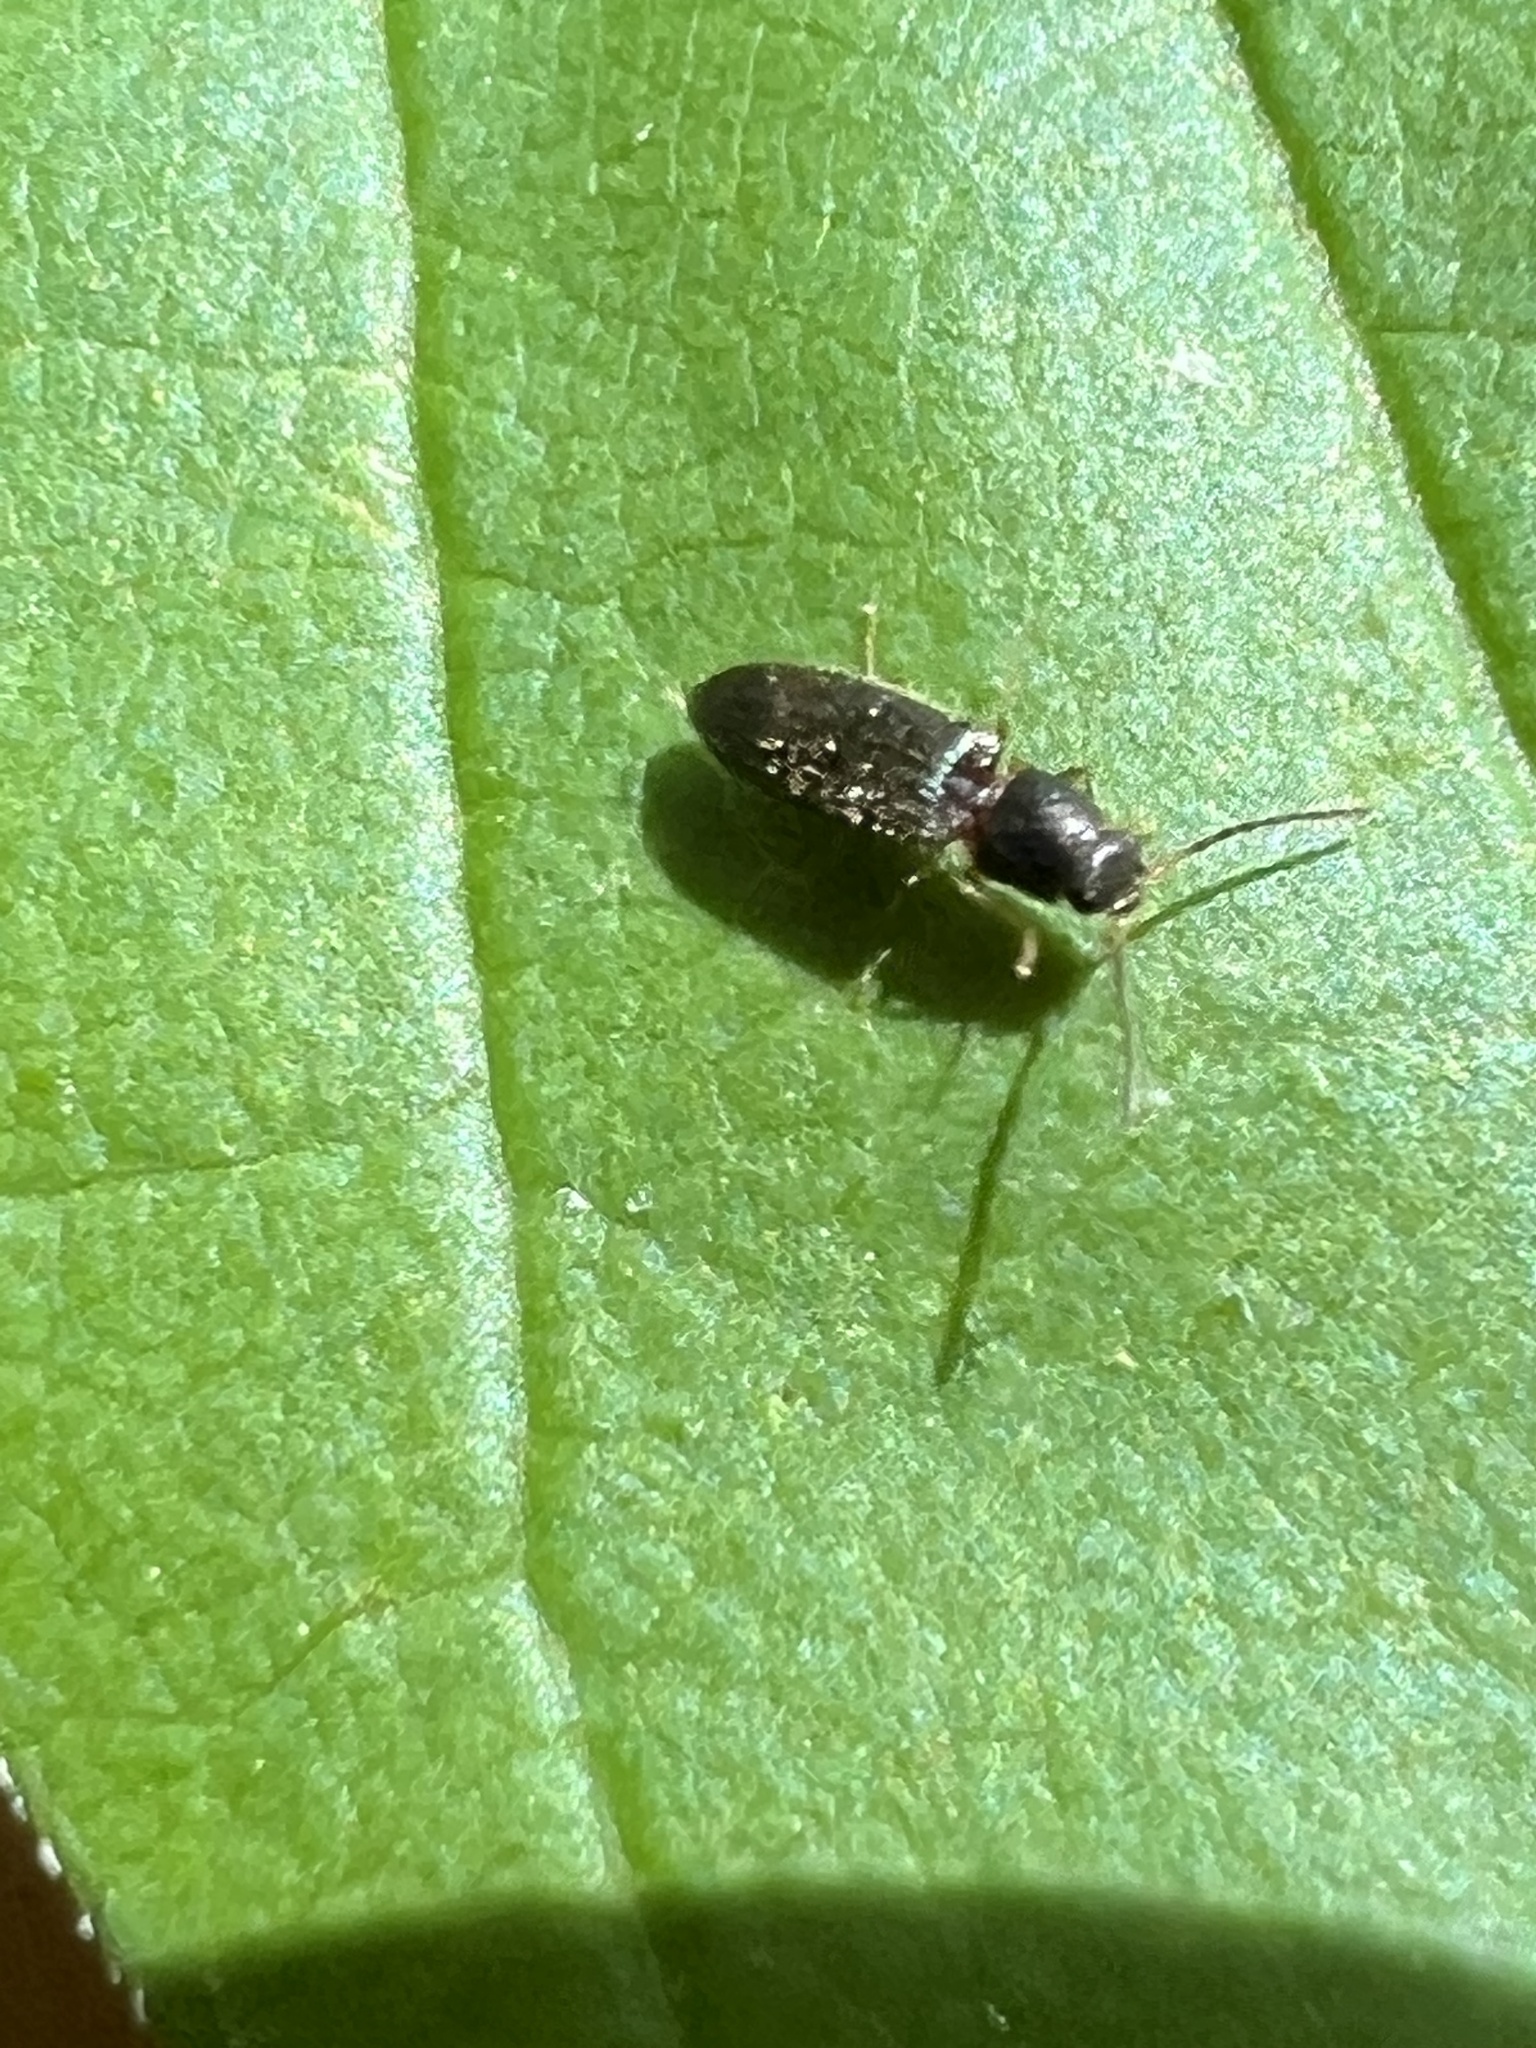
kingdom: Animalia
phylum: Arthropoda
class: Insecta
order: Coleoptera
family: Elateridae
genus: Tetralimonius
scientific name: Tetralimonius
